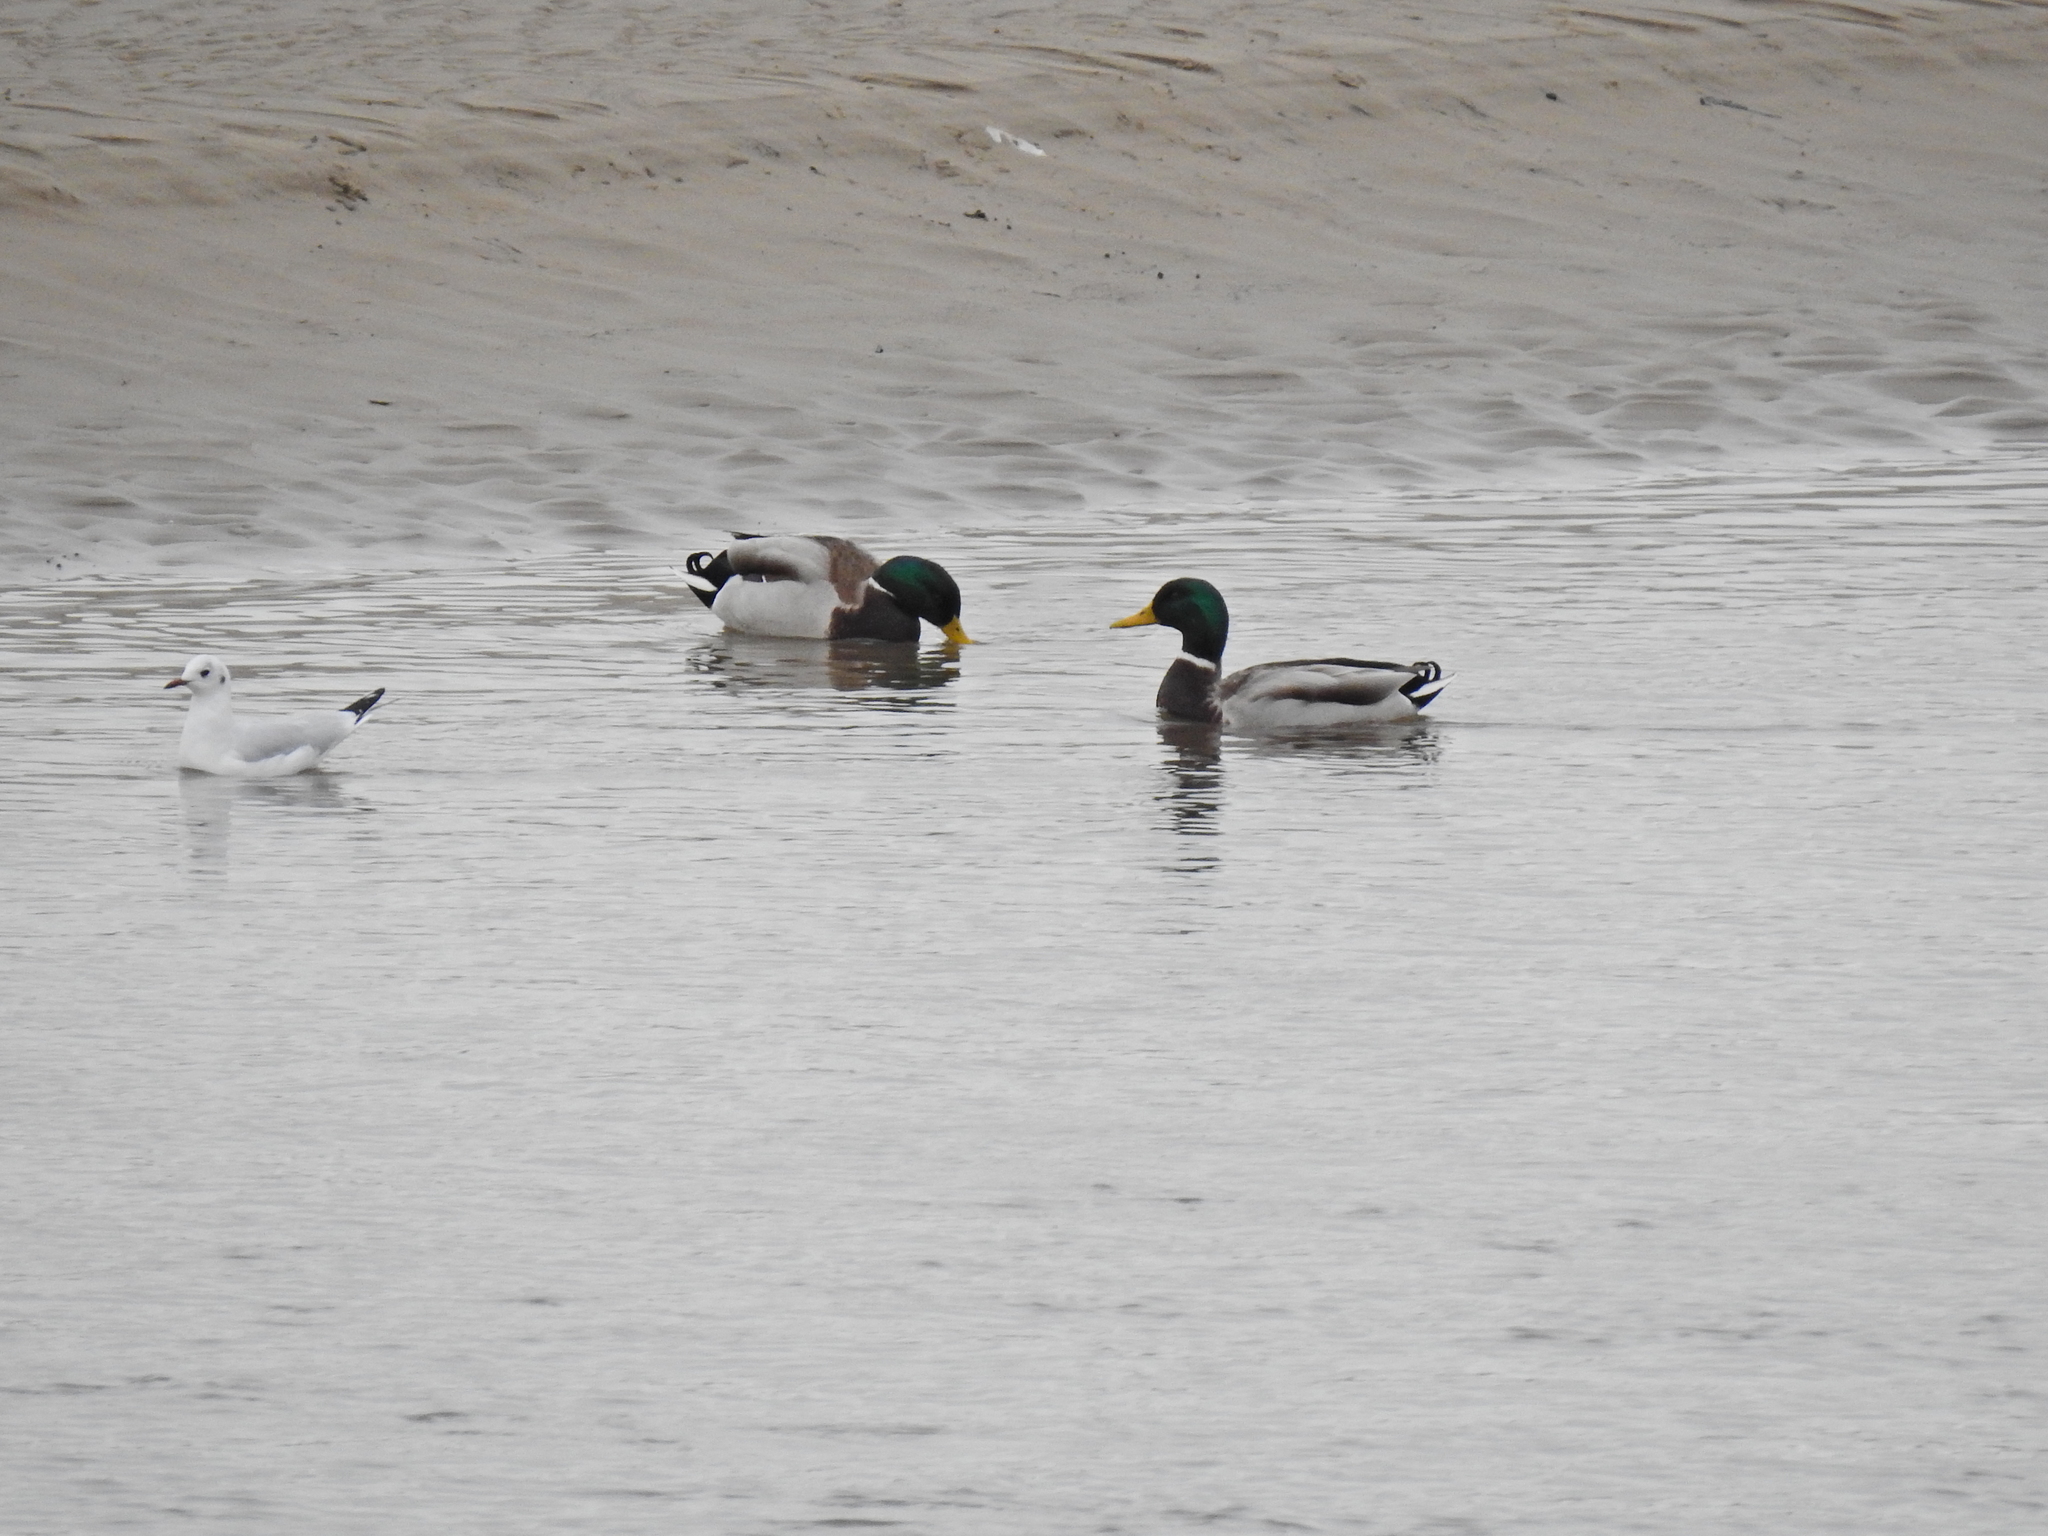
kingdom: Animalia
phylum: Chordata
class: Aves
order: Anseriformes
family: Anatidae
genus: Anas
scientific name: Anas platyrhynchos
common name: Mallard
